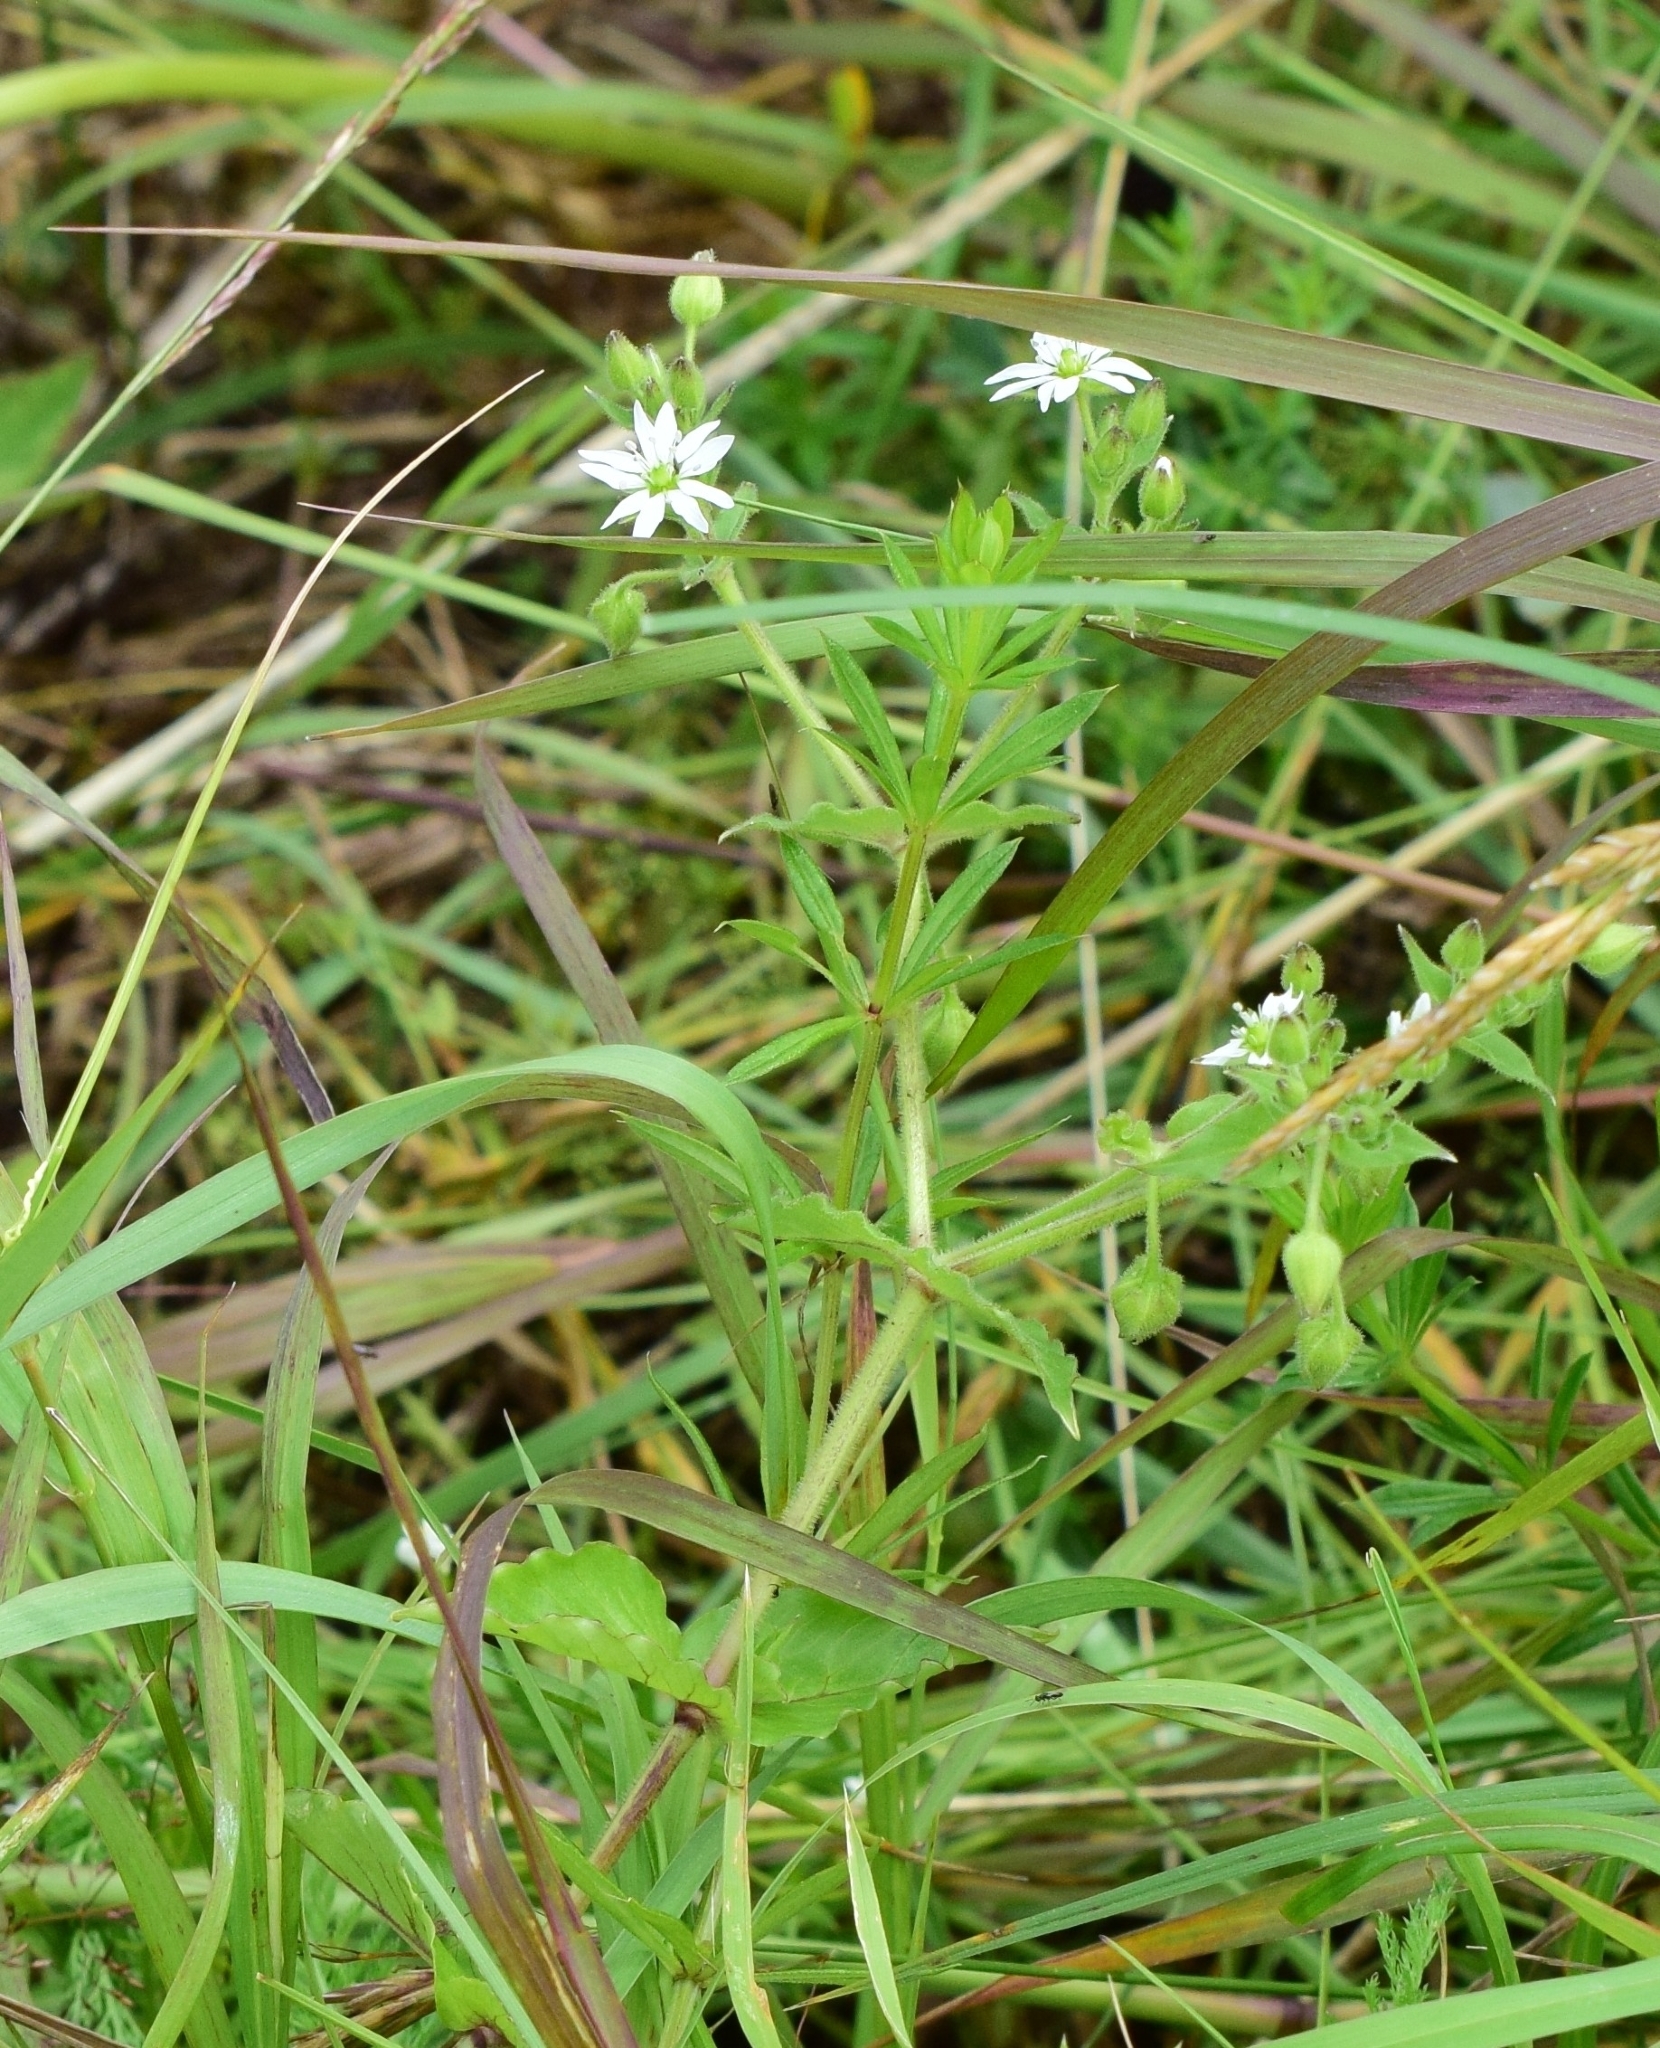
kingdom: Plantae
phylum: Tracheophyta
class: Magnoliopsida
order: Caryophyllales
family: Caryophyllaceae
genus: Stellaria
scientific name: Stellaria aquatica
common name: Water chickweed
